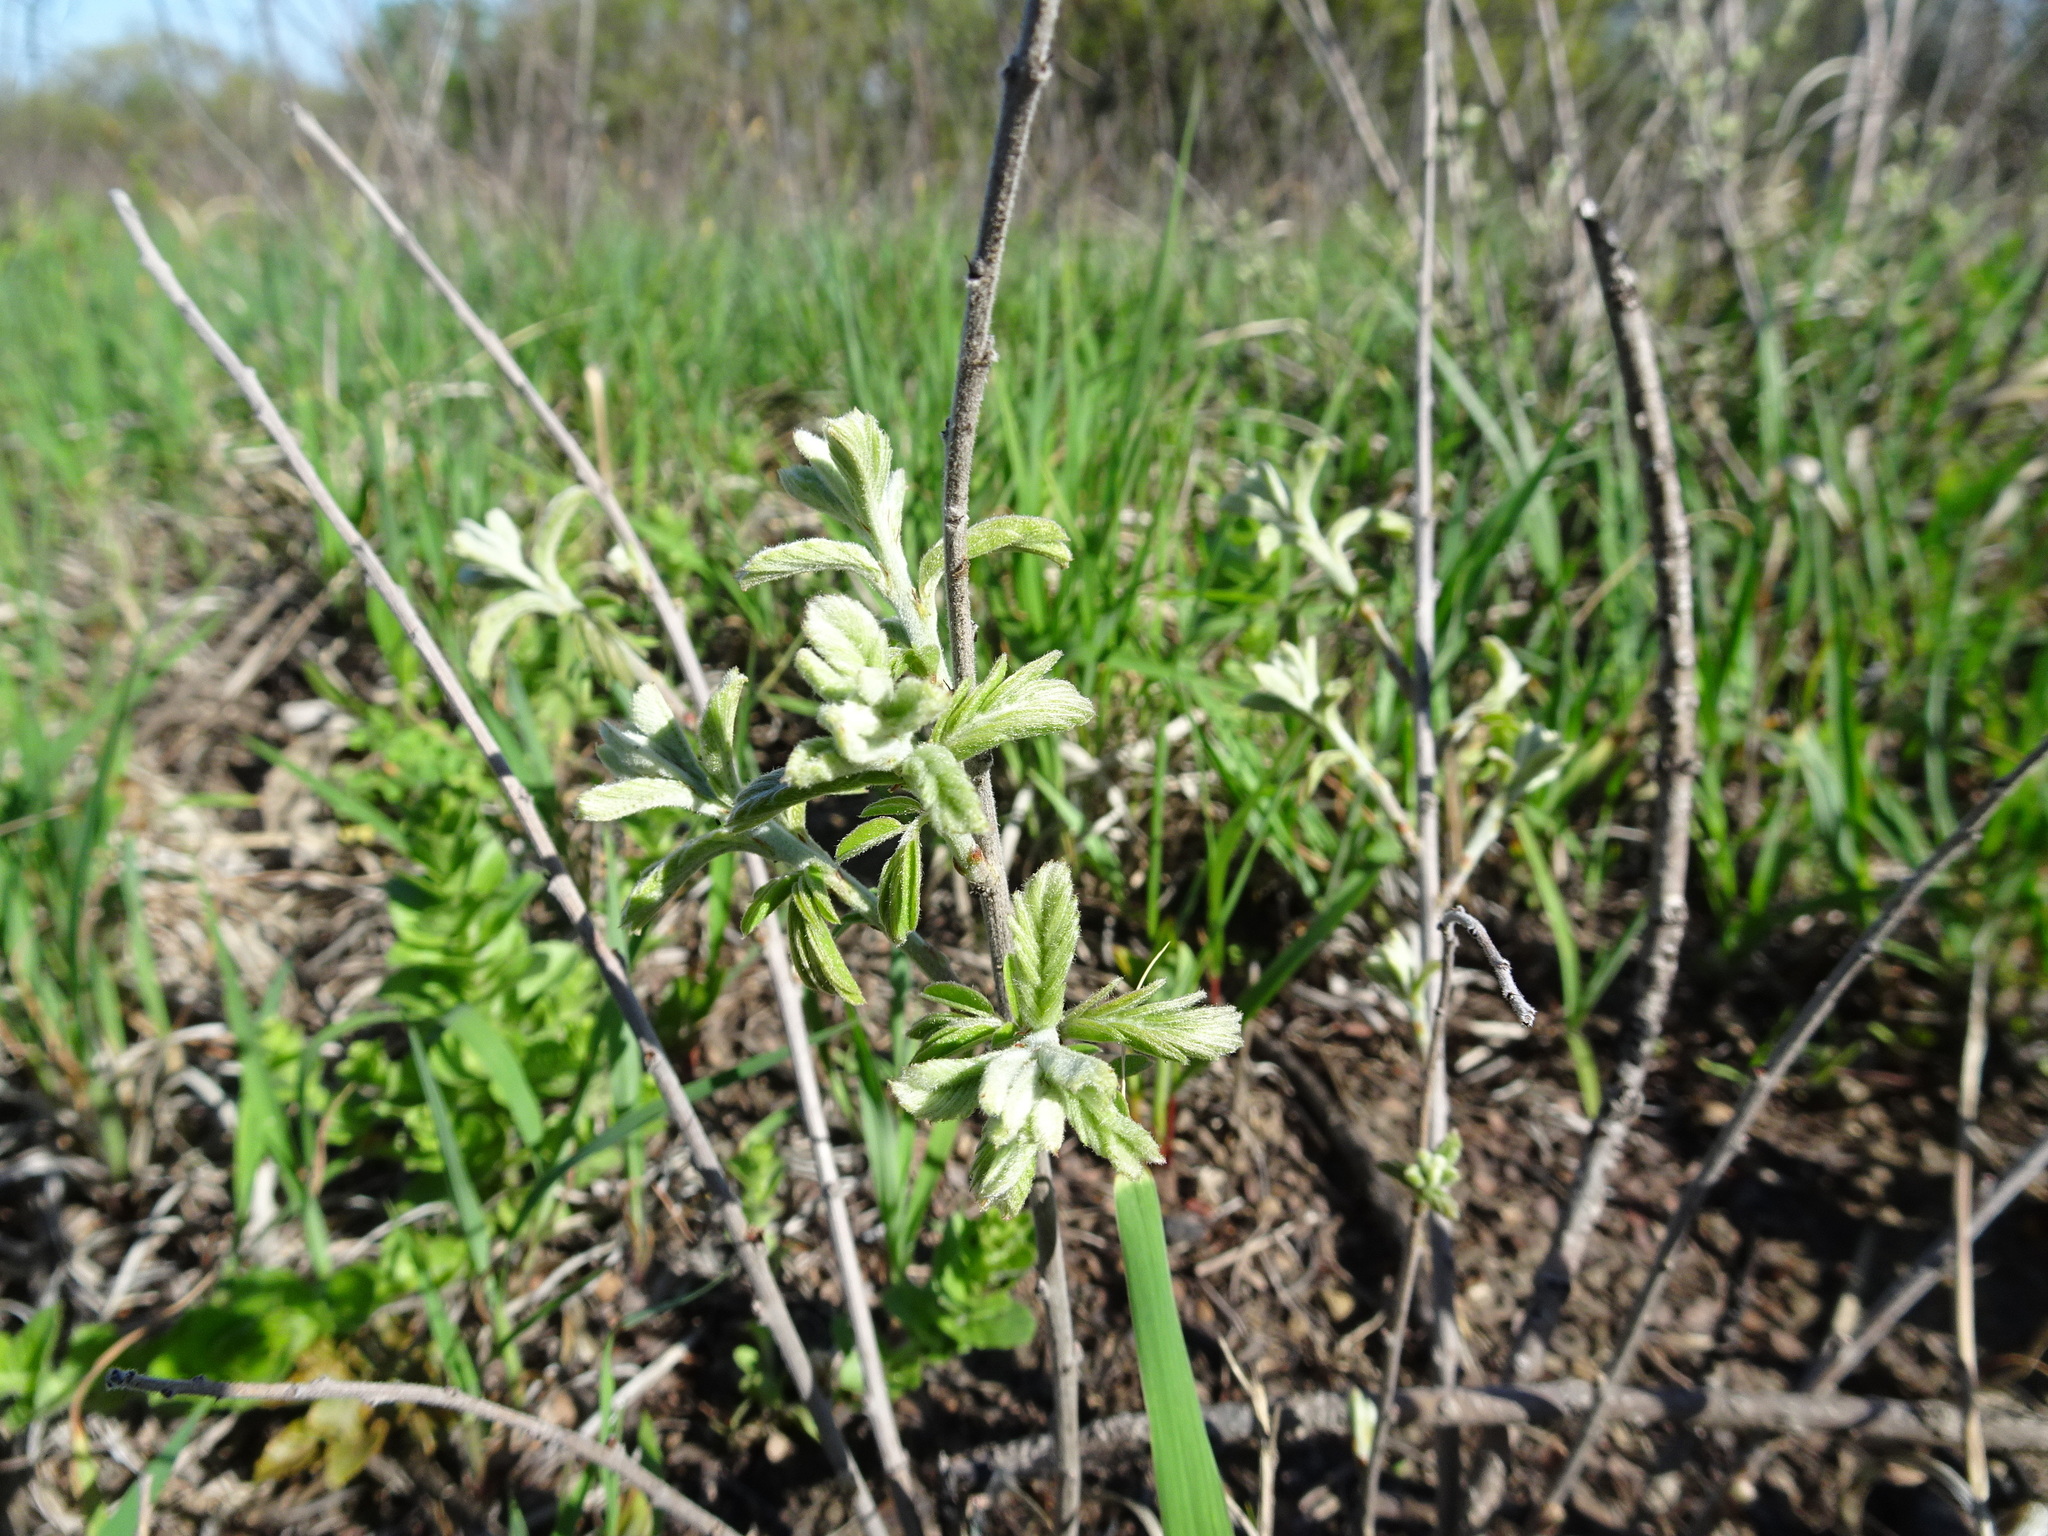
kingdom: Plantae
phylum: Tracheophyta
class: Magnoliopsida
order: Fabales
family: Fabaceae
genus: Amorpha
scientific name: Amorpha canescens
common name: Leadplant
